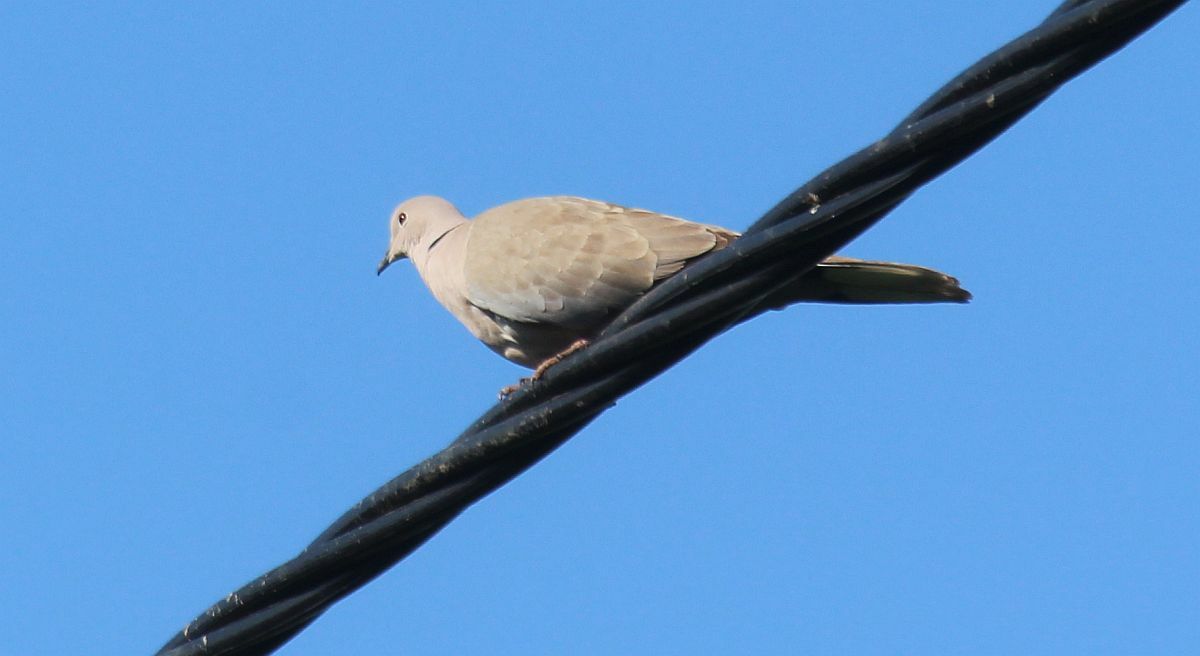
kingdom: Animalia
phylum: Chordata
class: Aves
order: Columbiformes
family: Columbidae
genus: Streptopelia
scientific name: Streptopelia decaocto
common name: Eurasian collared dove
